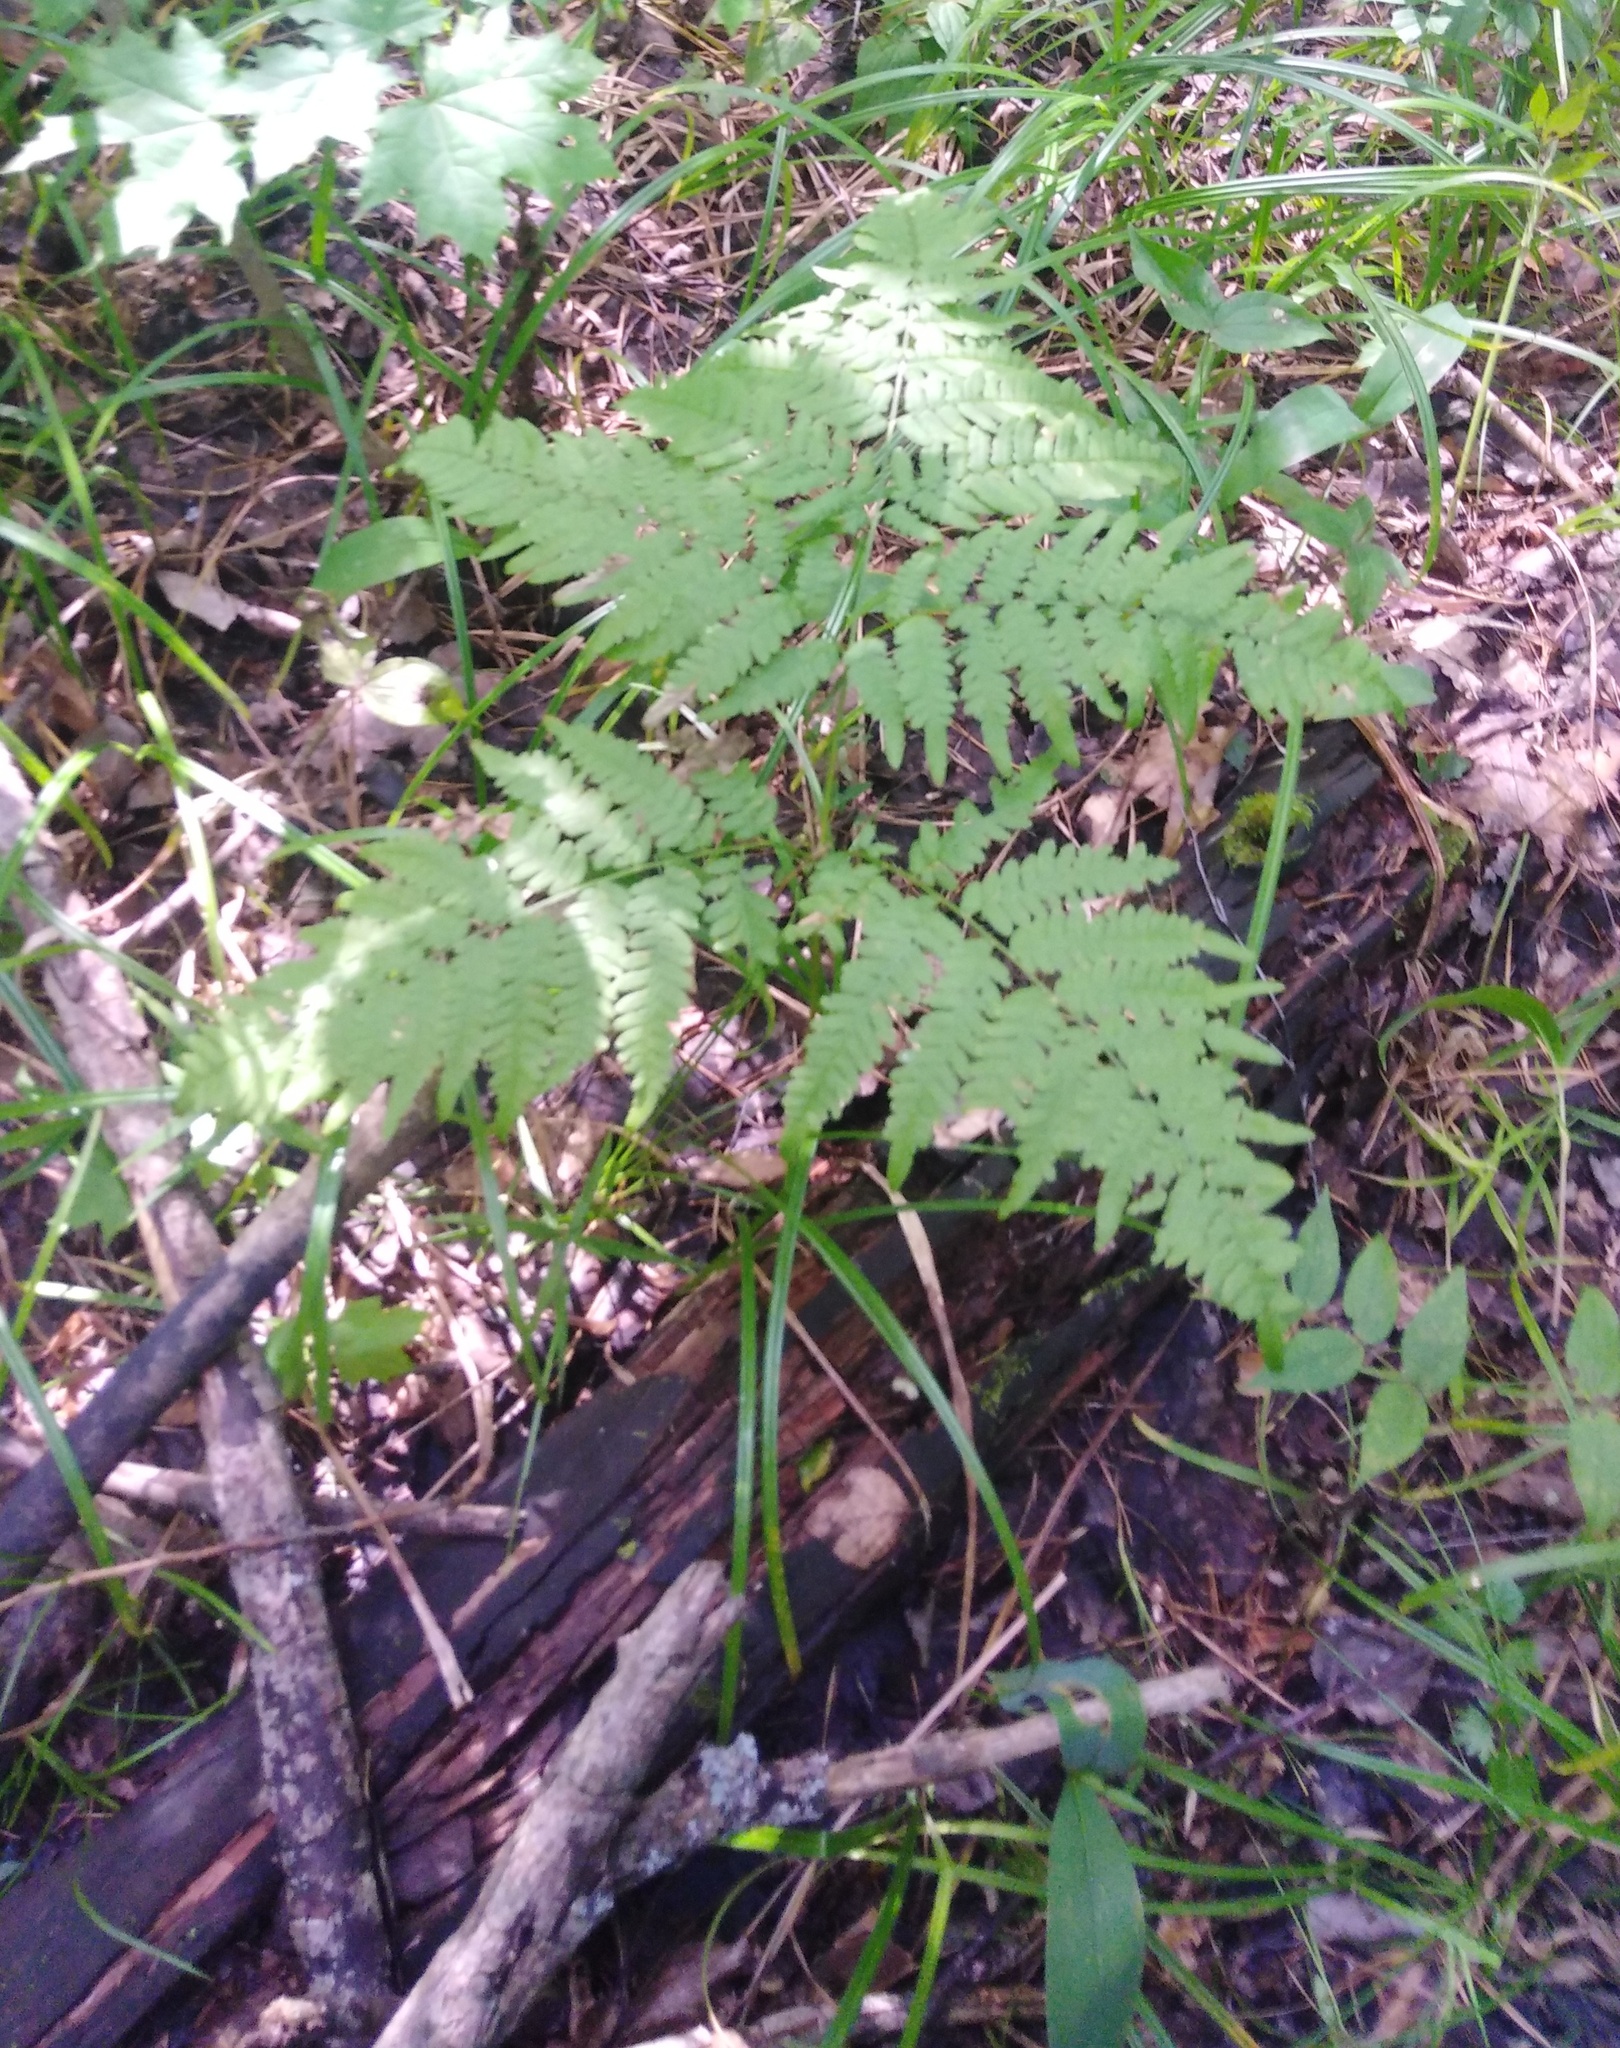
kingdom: Plantae
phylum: Tracheophyta
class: Polypodiopsida
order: Polypodiales
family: Dennstaedtiaceae
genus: Pteridium
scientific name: Pteridium aquilinum
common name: Bracken
